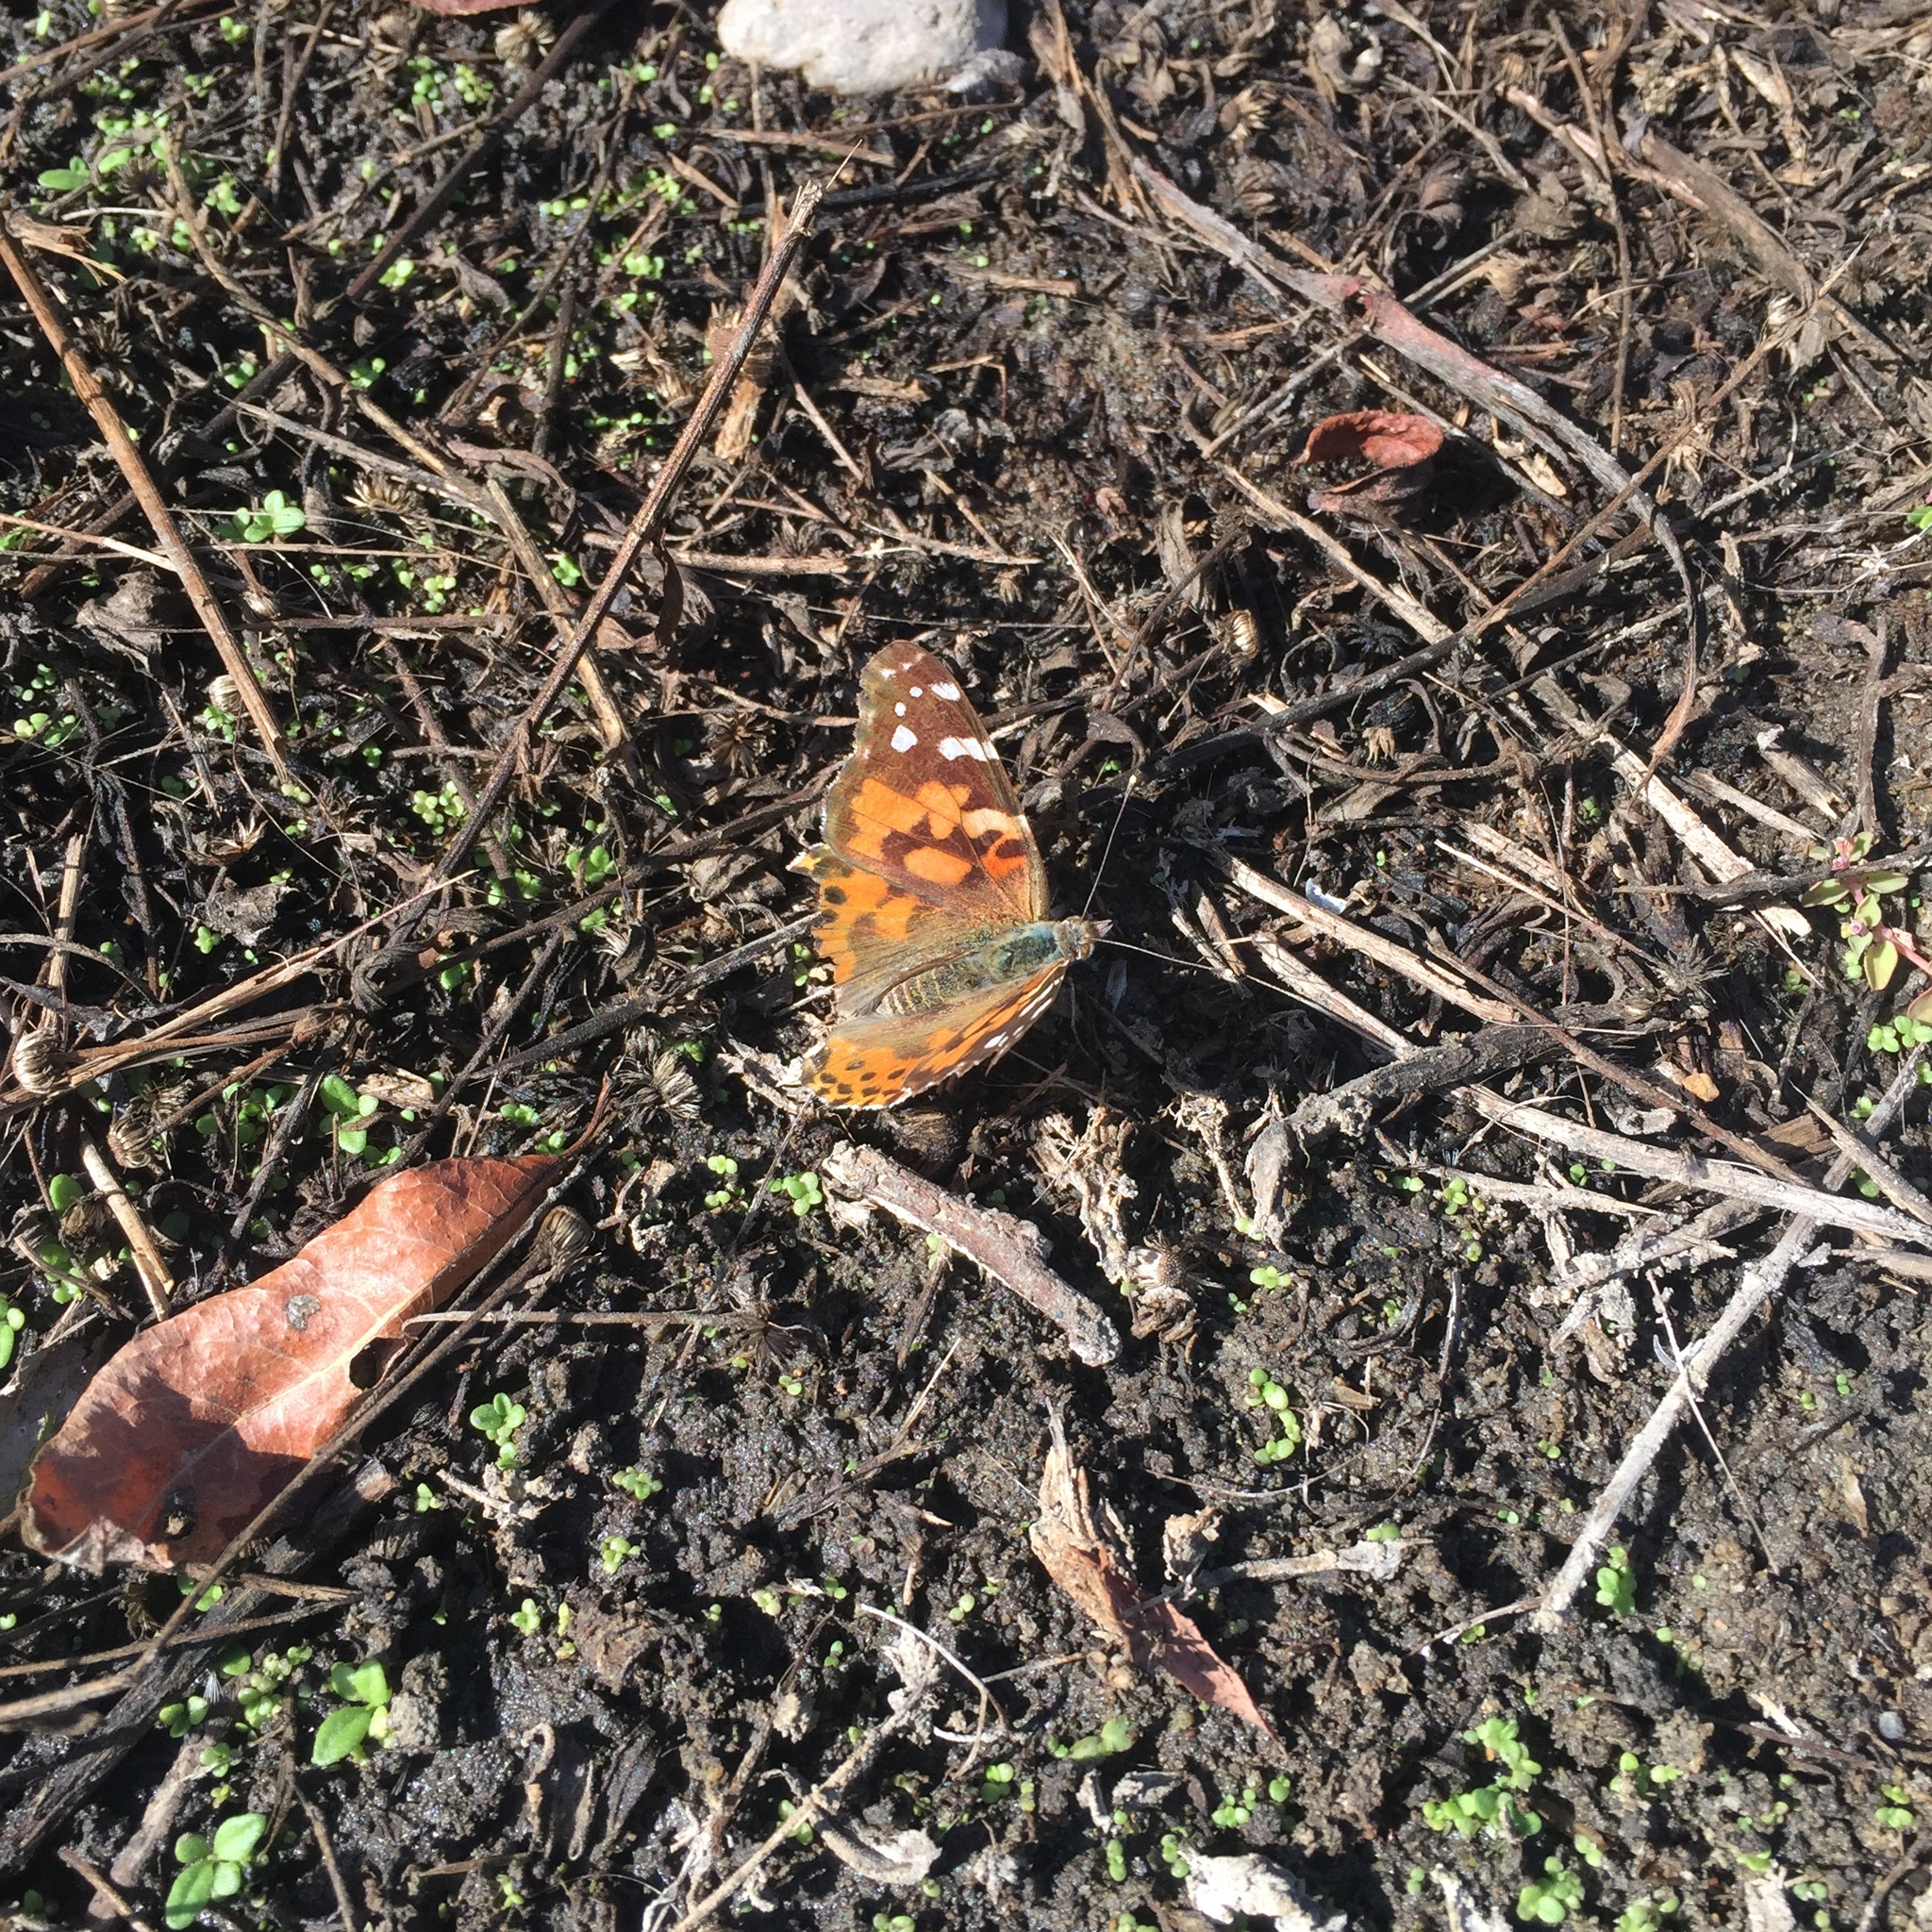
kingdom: Animalia
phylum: Arthropoda
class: Insecta
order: Lepidoptera
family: Nymphalidae
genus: Vanessa
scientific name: Vanessa cardui
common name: Painted lady
